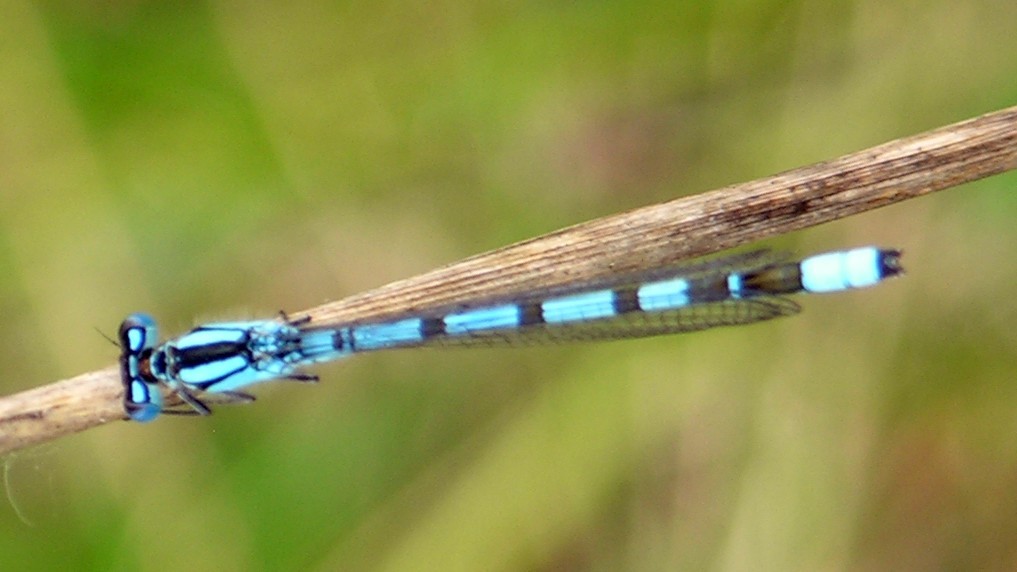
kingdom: Animalia
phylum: Arthropoda
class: Insecta
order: Odonata
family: Coenagrionidae
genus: Enallagma
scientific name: Enallagma cyathigerum
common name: Common blue damselfly
